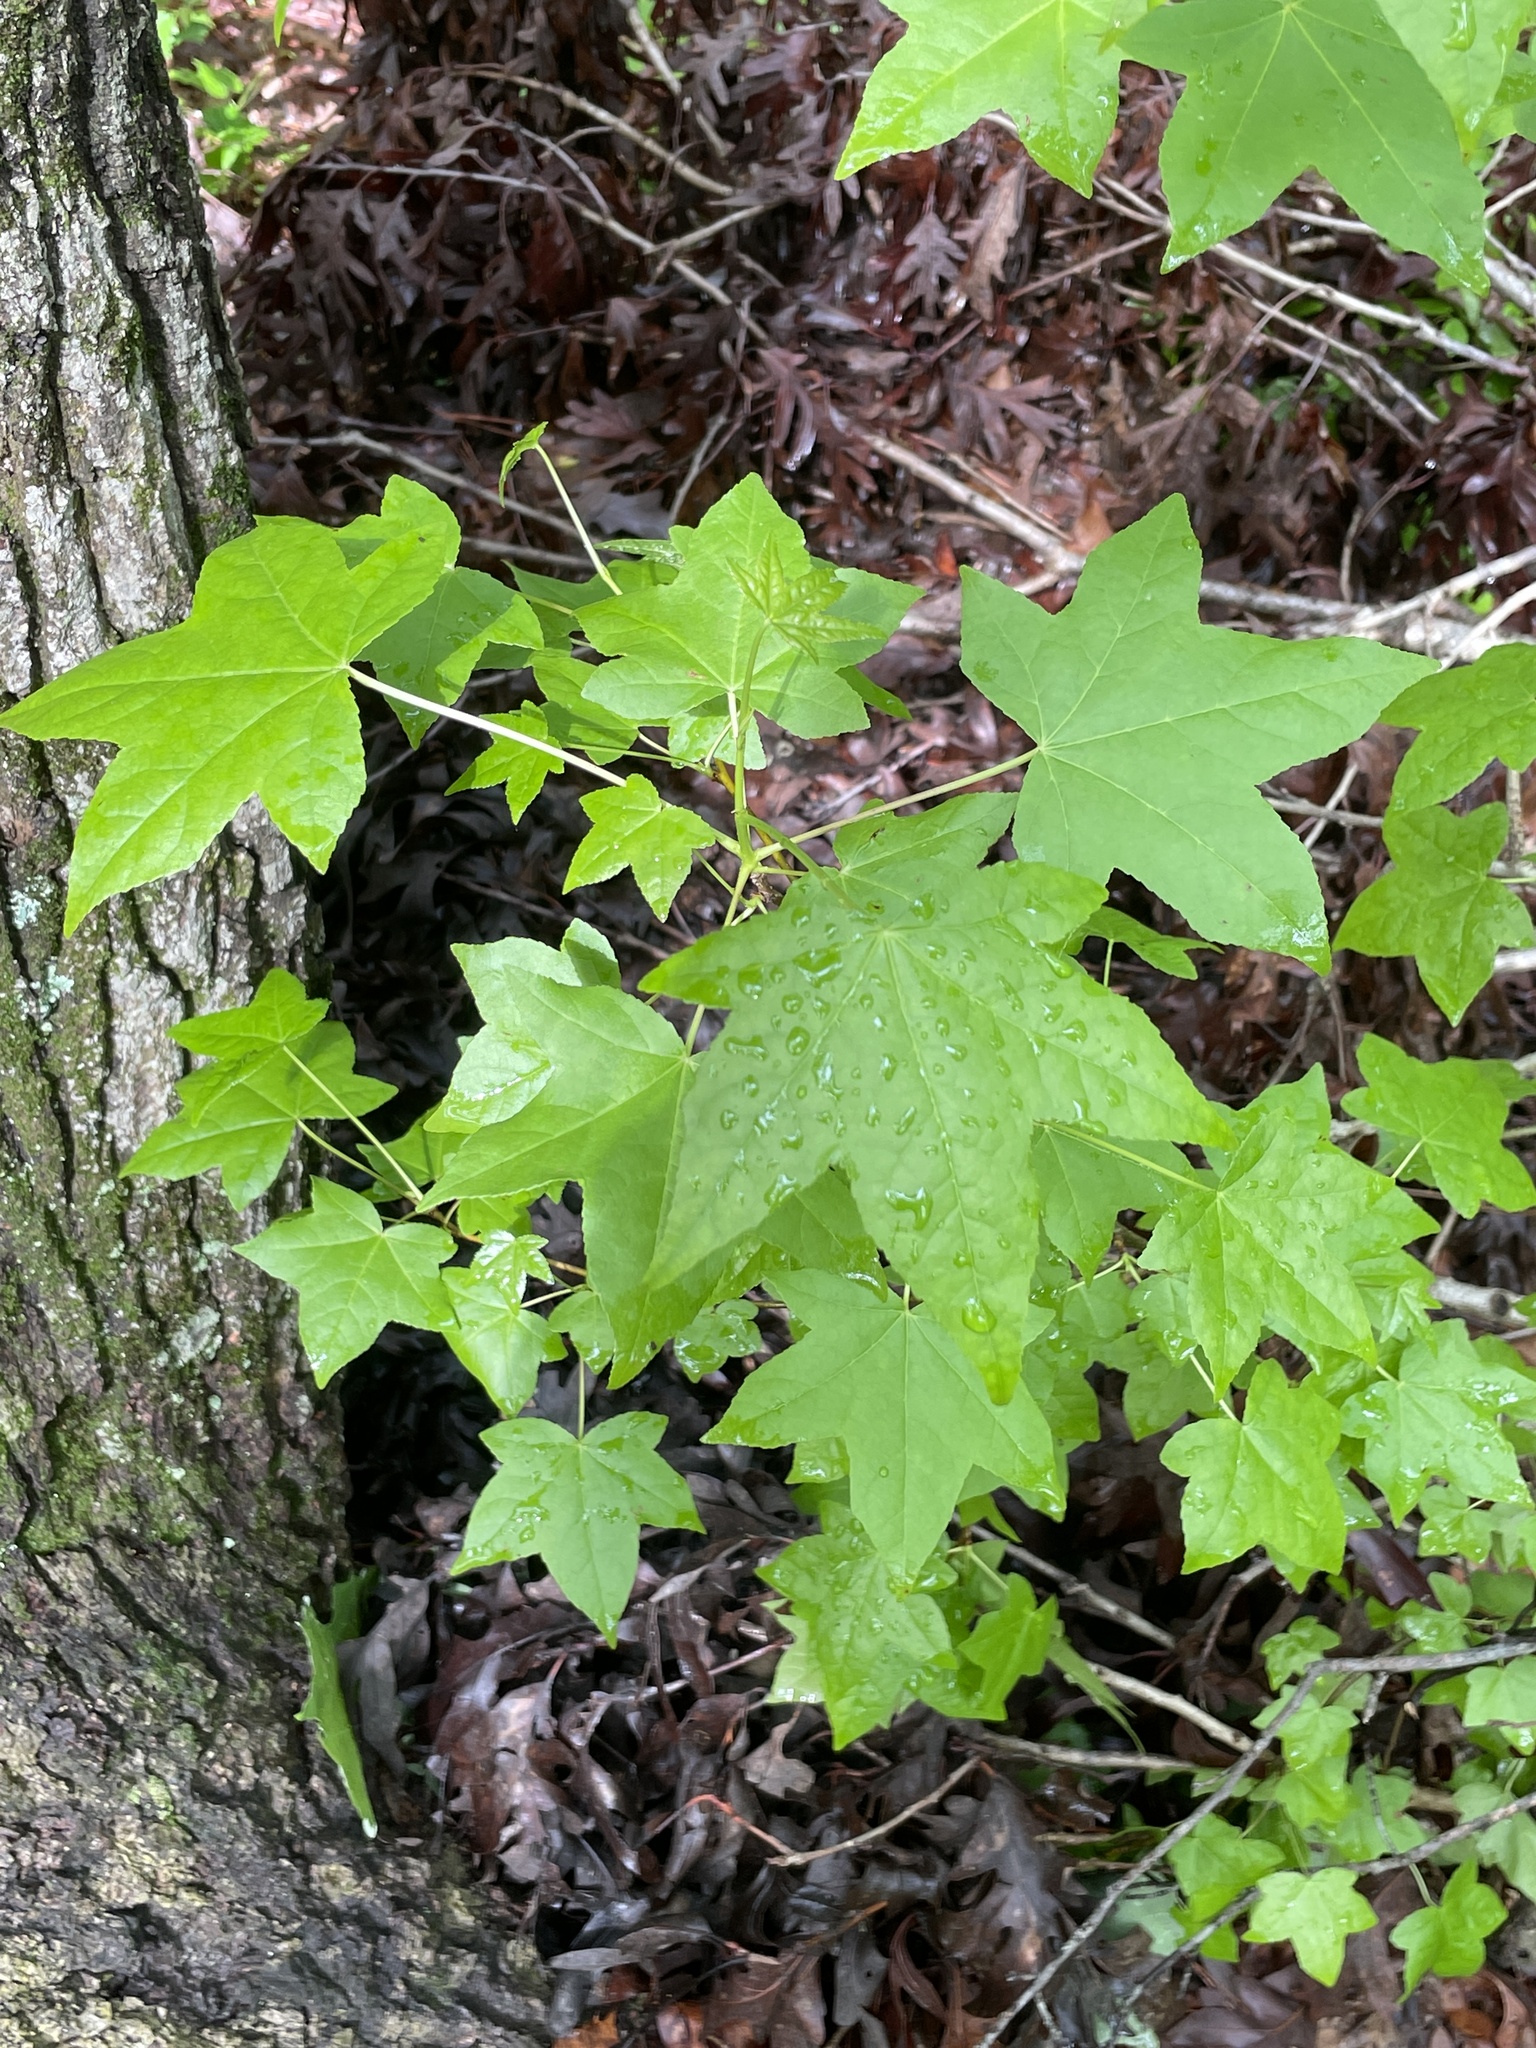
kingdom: Plantae
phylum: Tracheophyta
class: Magnoliopsida
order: Saxifragales
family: Altingiaceae
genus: Liquidambar
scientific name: Liquidambar styraciflua
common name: Sweet gum
